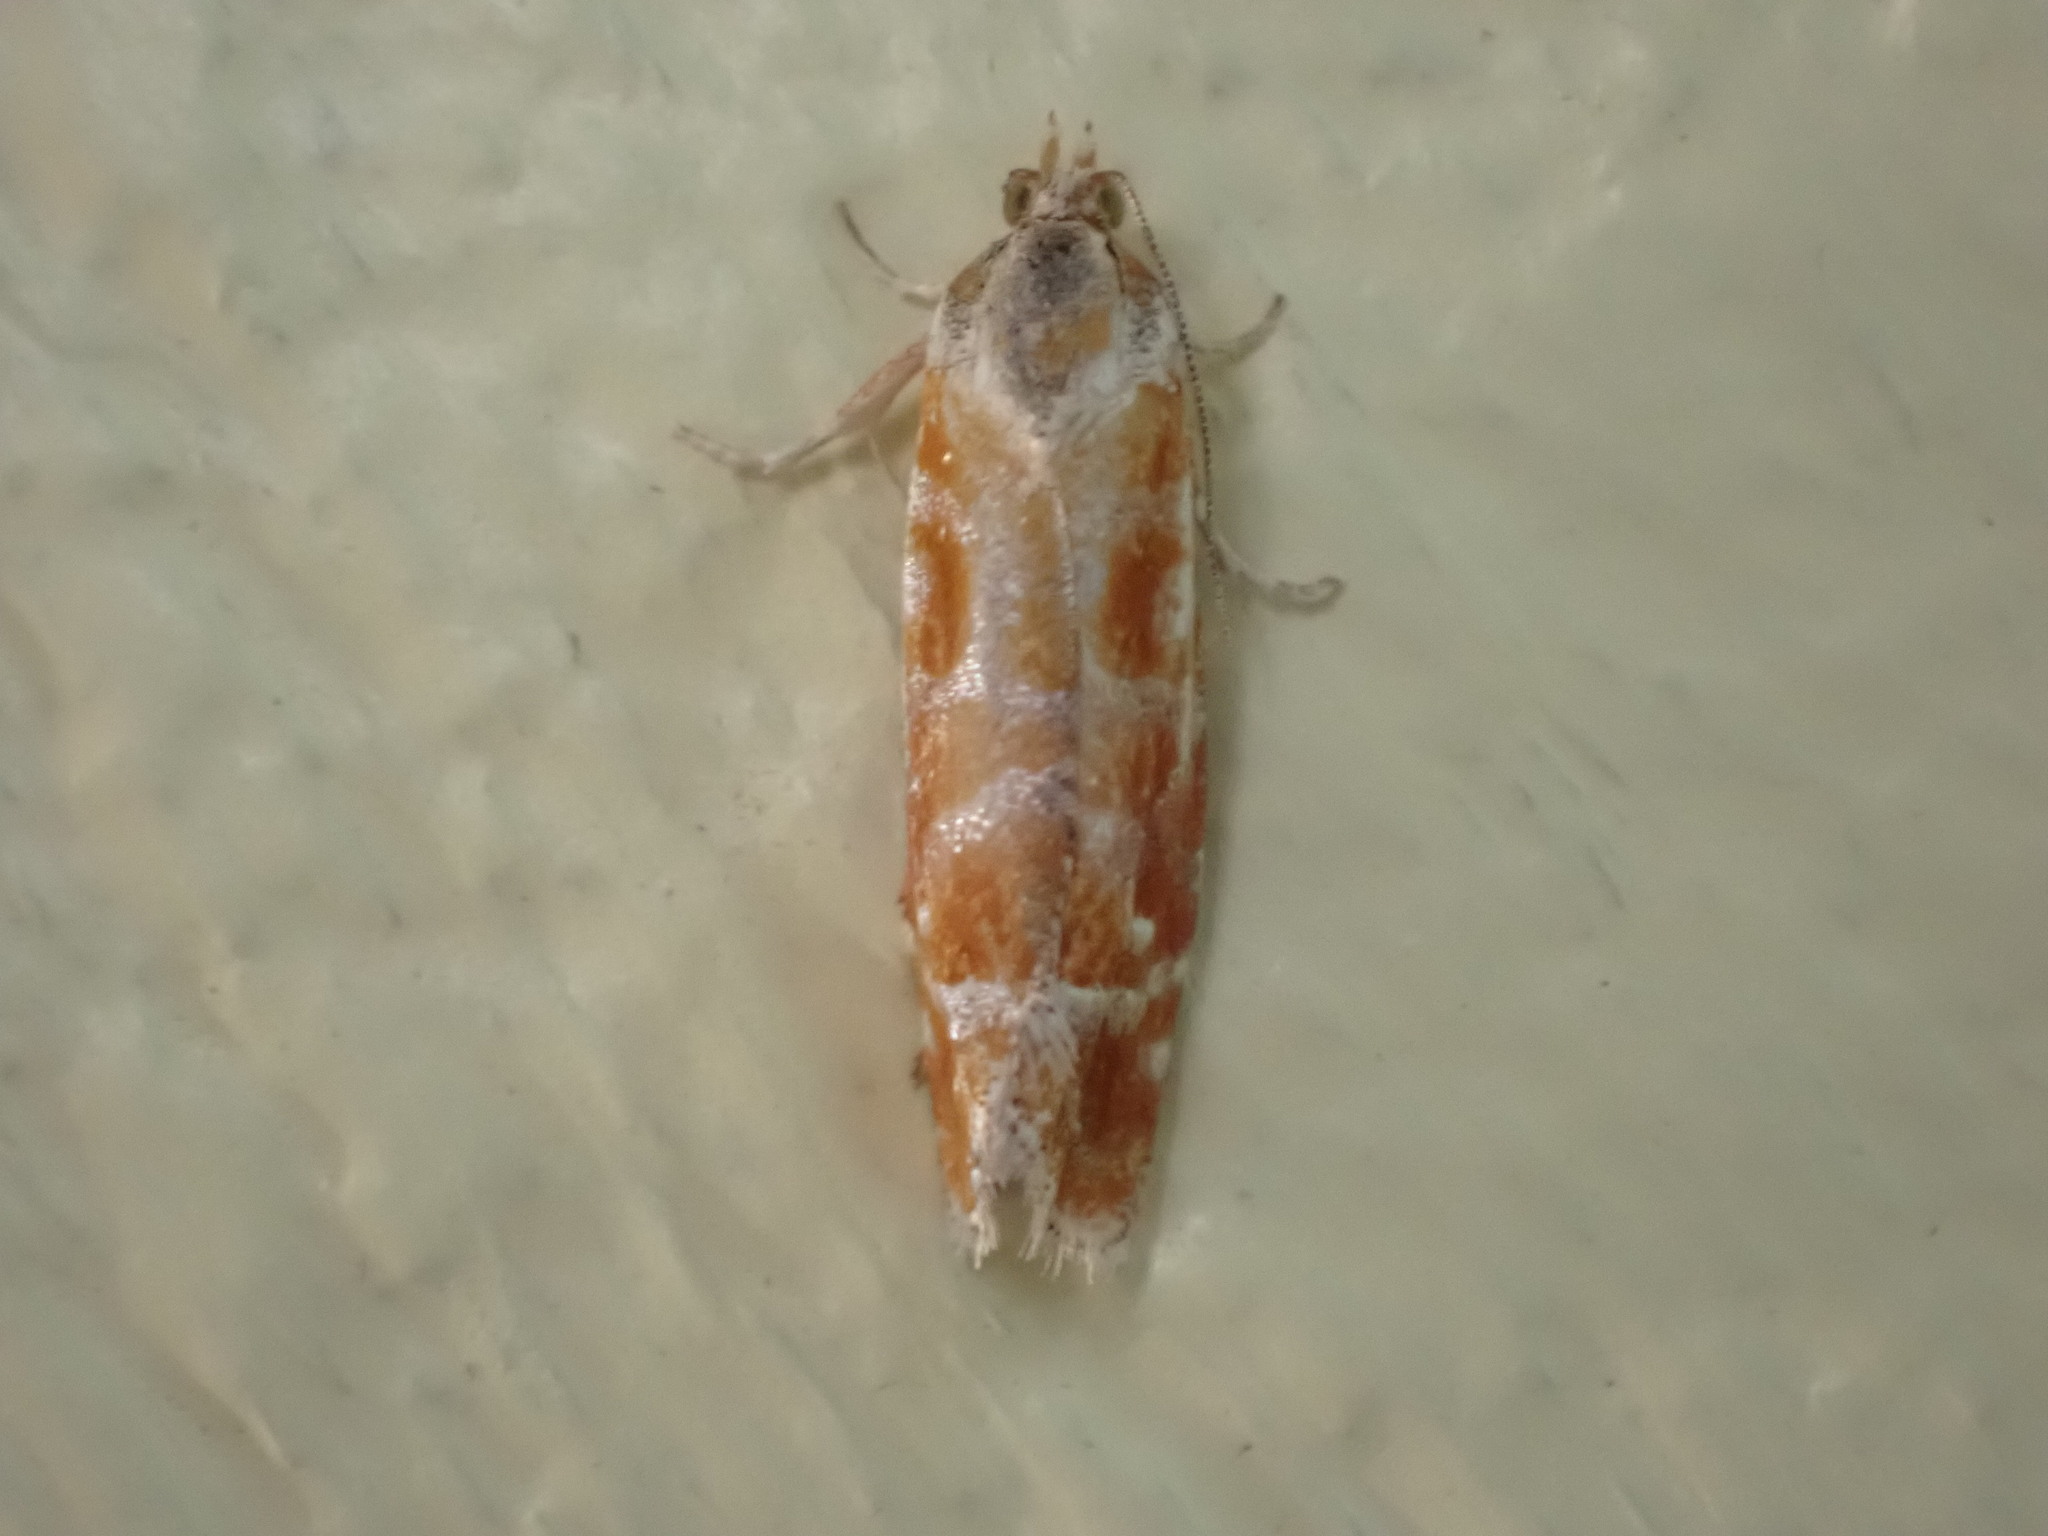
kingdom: Animalia
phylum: Arthropoda
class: Insecta
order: Lepidoptera
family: Tortricidae
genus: Rhyacionia
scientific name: Rhyacionia buoliana
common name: European pine shoot moth
